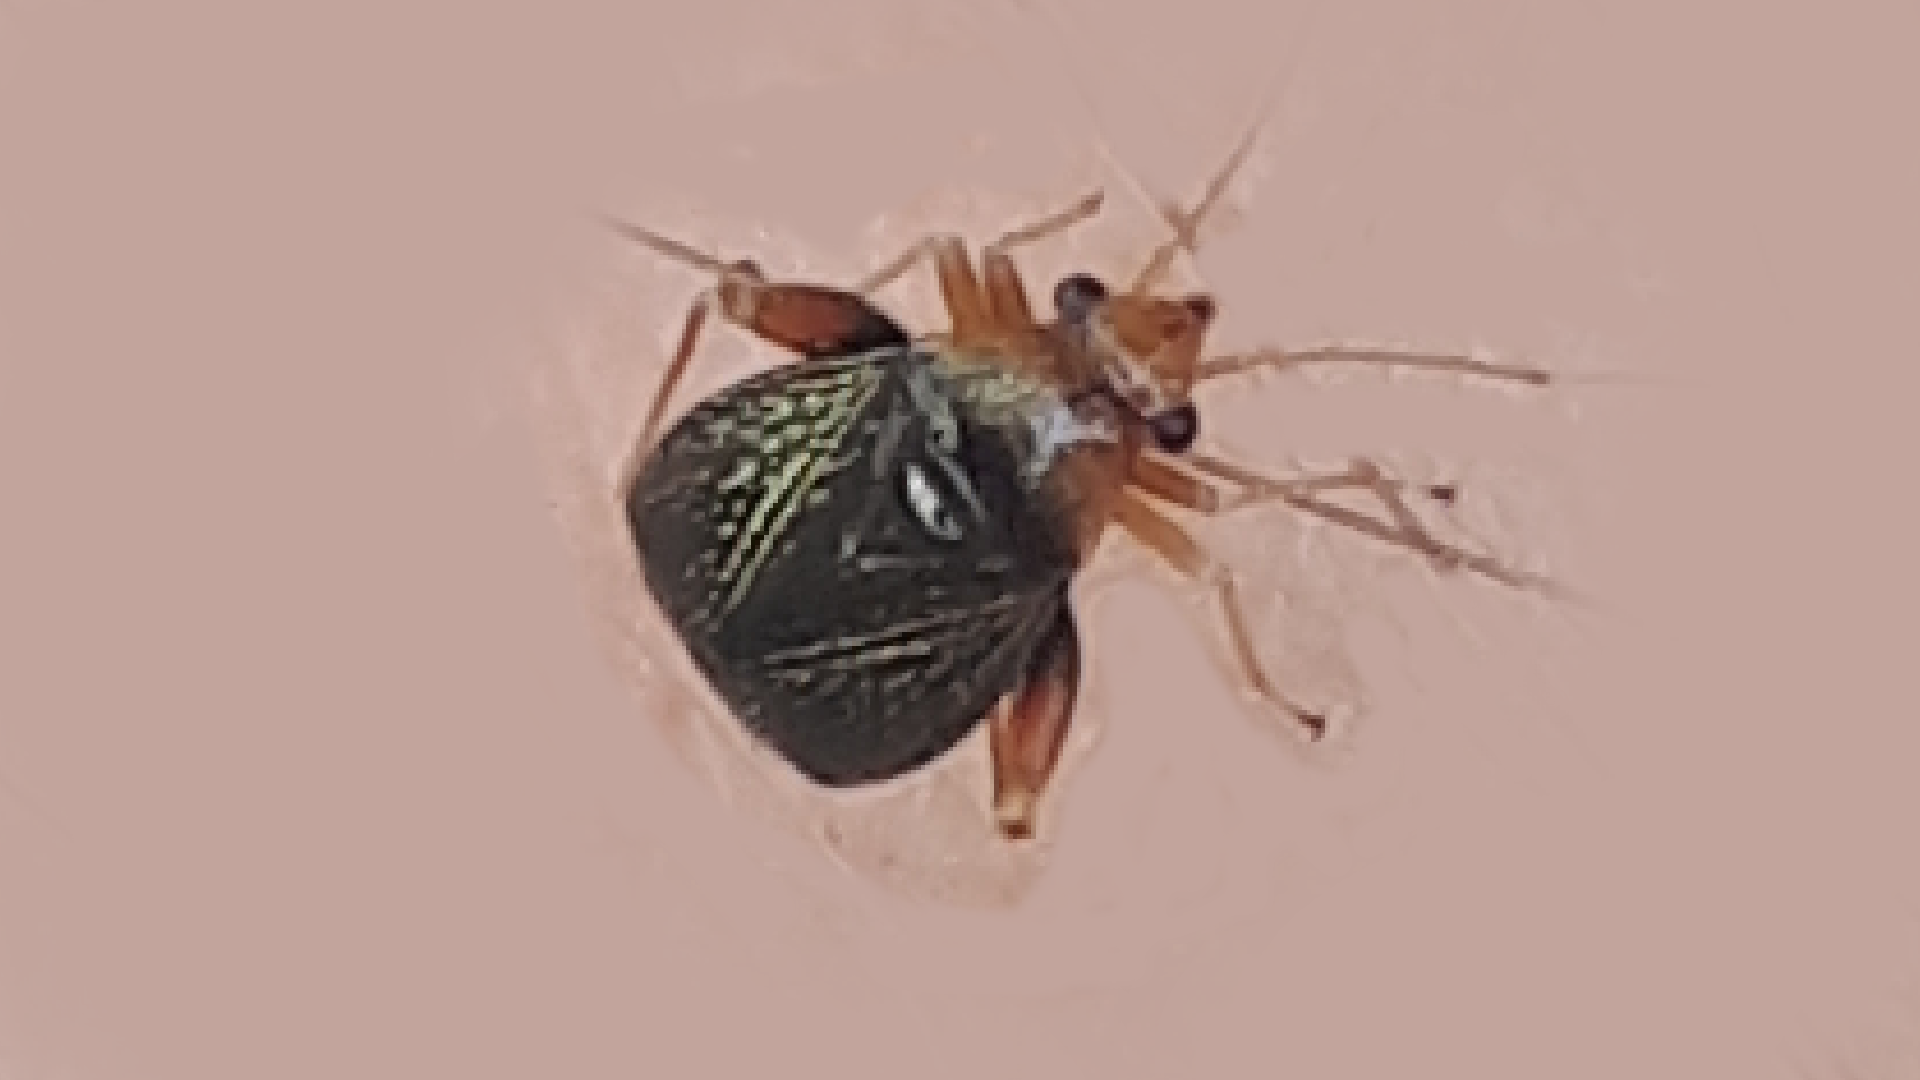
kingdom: Animalia
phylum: Arthropoda
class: Insecta
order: Hemiptera
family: Miridae
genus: Halticus
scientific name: Halticus luteicollis
